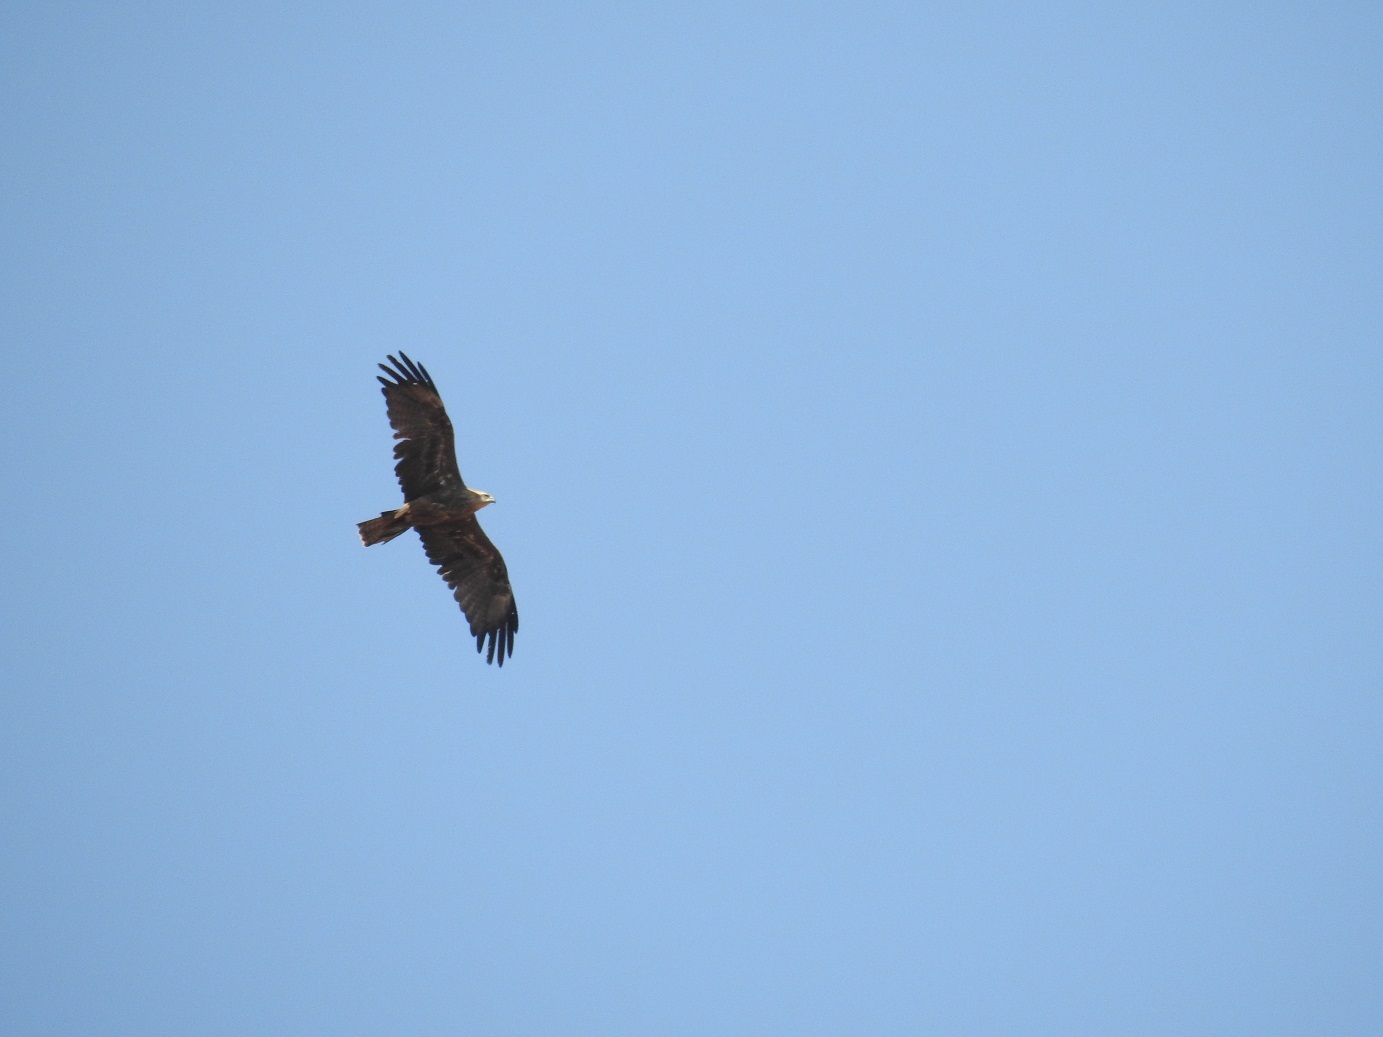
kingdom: Animalia
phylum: Chordata
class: Aves
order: Accipitriformes
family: Accipitridae
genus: Milvus
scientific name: Milvus migrans
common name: Black kite
